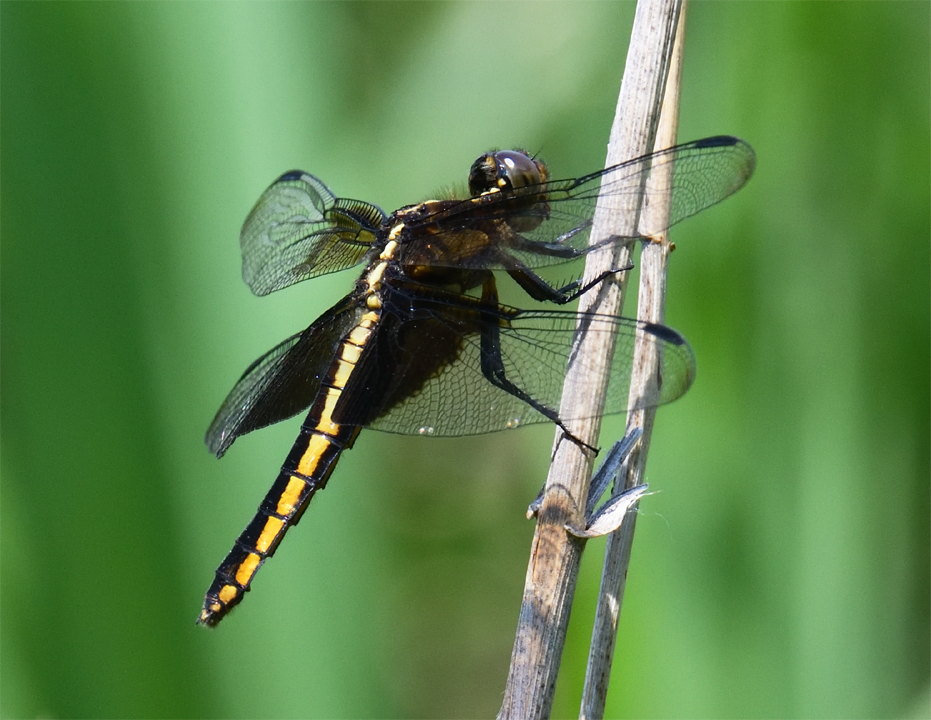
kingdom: Animalia
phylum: Arthropoda
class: Insecta
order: Odonata
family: Libellulidae
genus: Libellula
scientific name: Libellula luctuosa
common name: Widow skimmer
